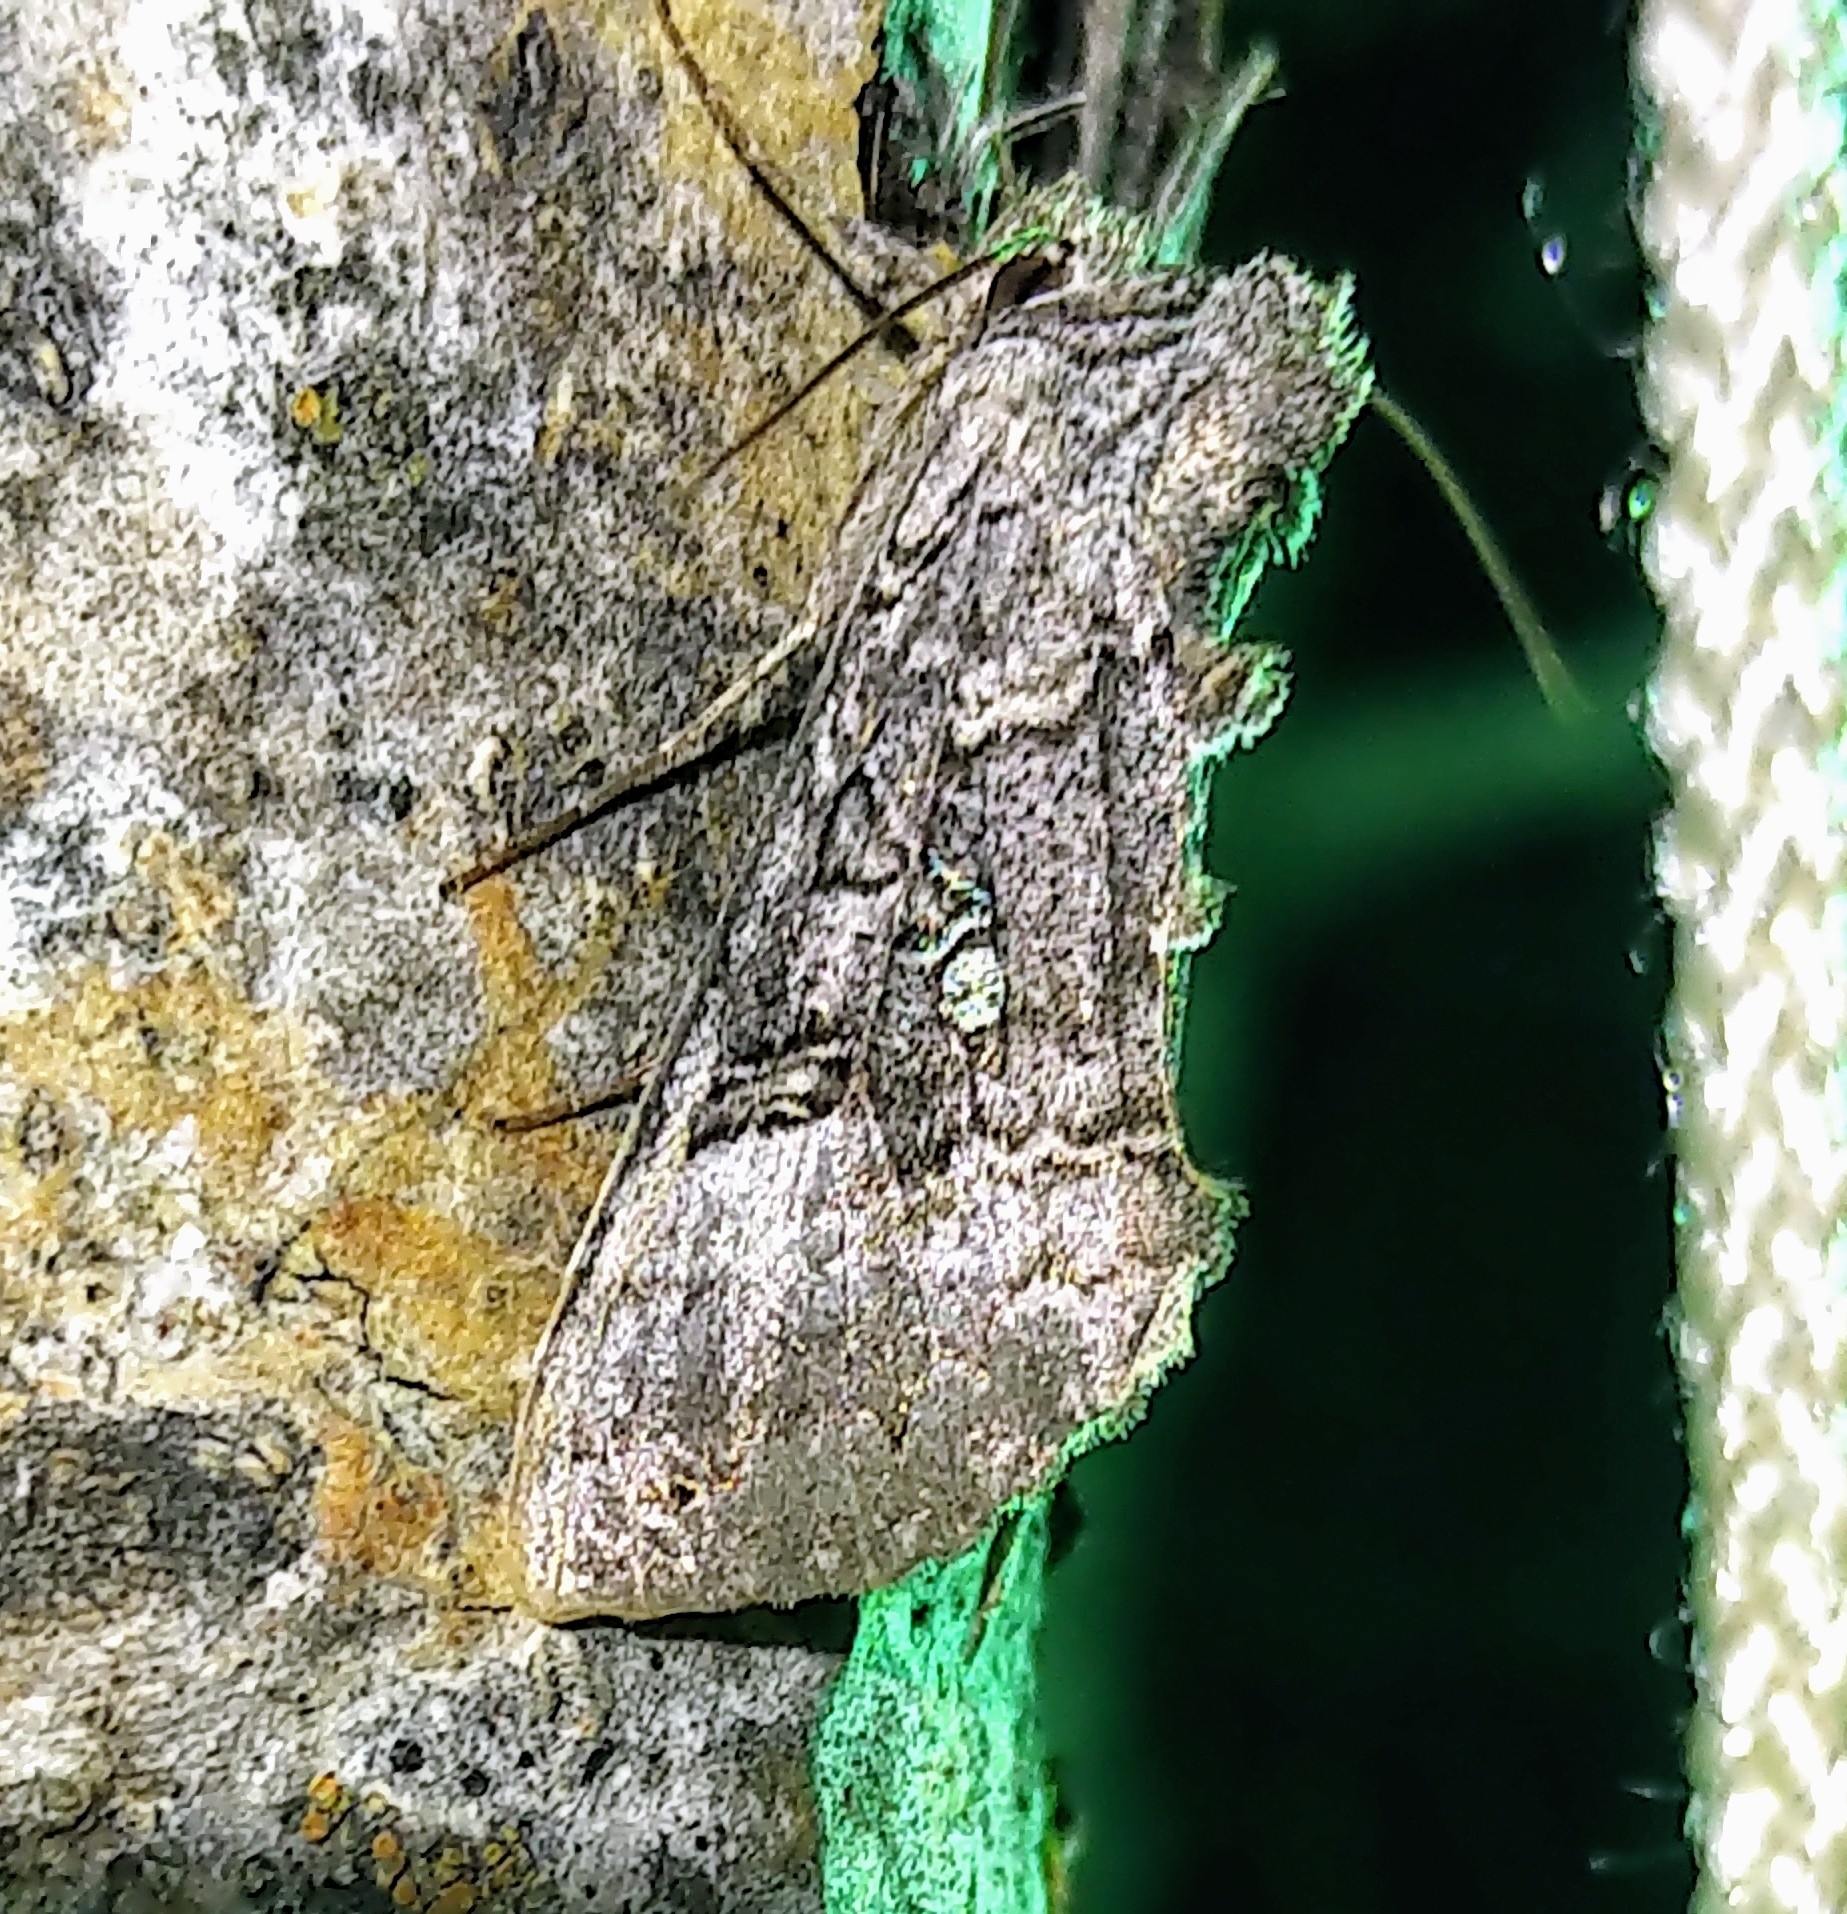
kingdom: Animalia
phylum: Arthropoda
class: Insecta
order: Lepidoptera
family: Noctuidae
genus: Syngrapha
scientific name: Syngrapha viridisigma
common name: Spruce false looper moth
